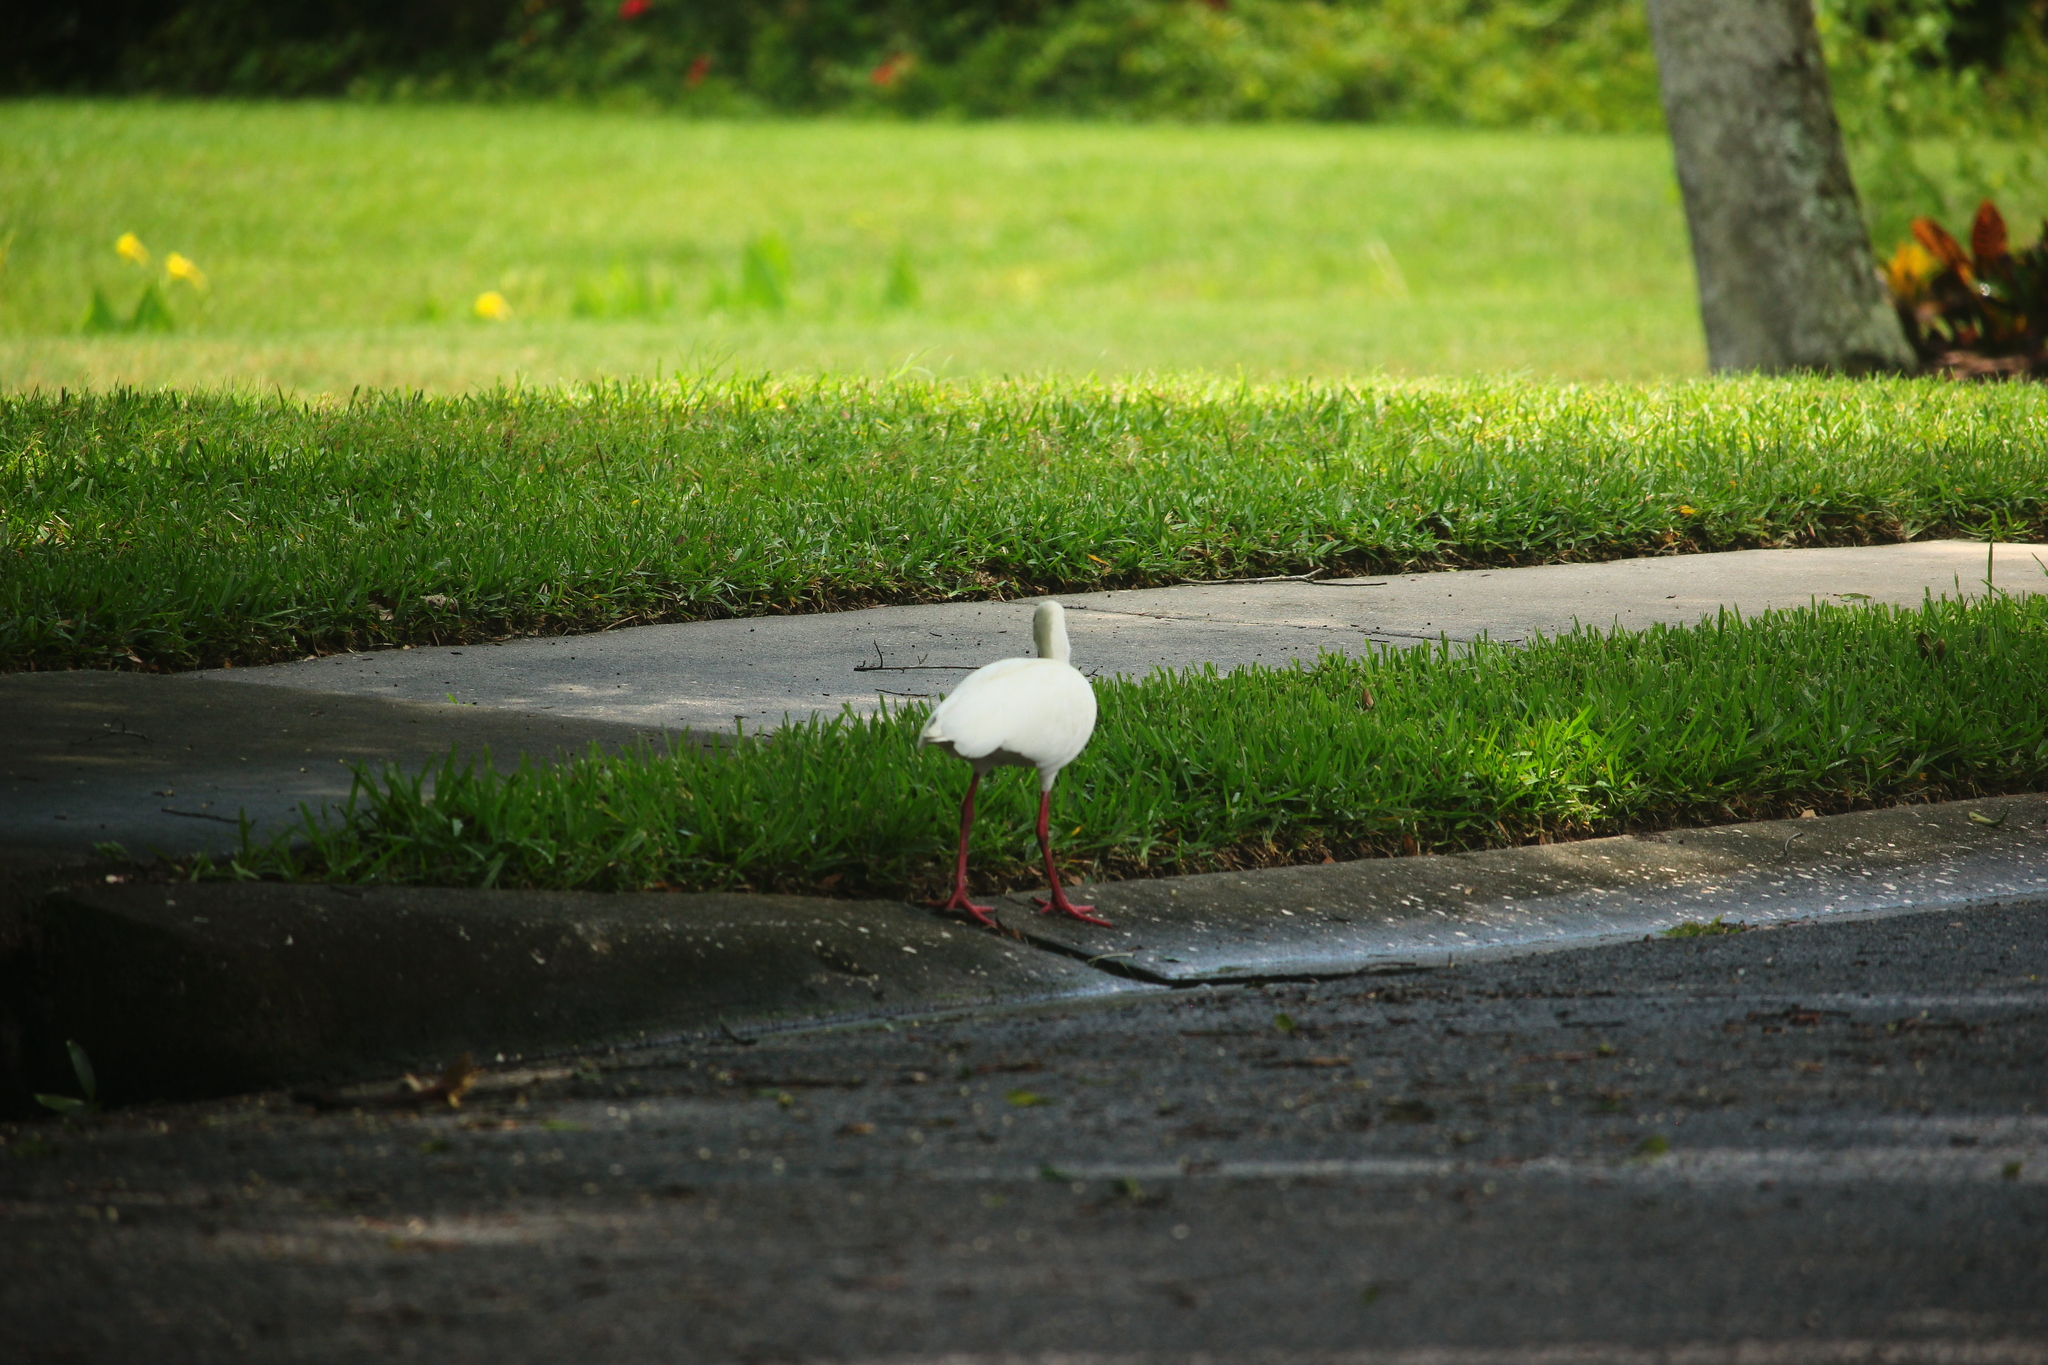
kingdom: Animalia
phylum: Chordata
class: Aves
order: Pelecaniformes
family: Threskiornithidae
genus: Eudocimus
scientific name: Eudocimus albus
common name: White ibis
